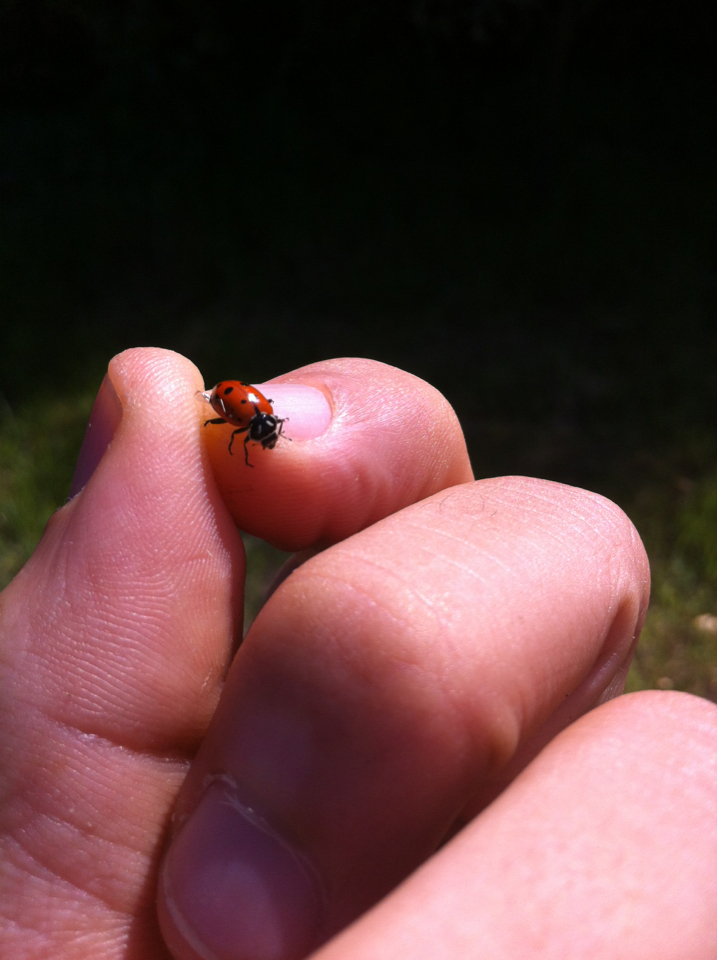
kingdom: Animalia
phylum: Arthropoda
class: Insecta
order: Coleoptera
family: Coccinellidae
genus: Hippodamia
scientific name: Hippodamia convergens
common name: Convergent lady beetle
